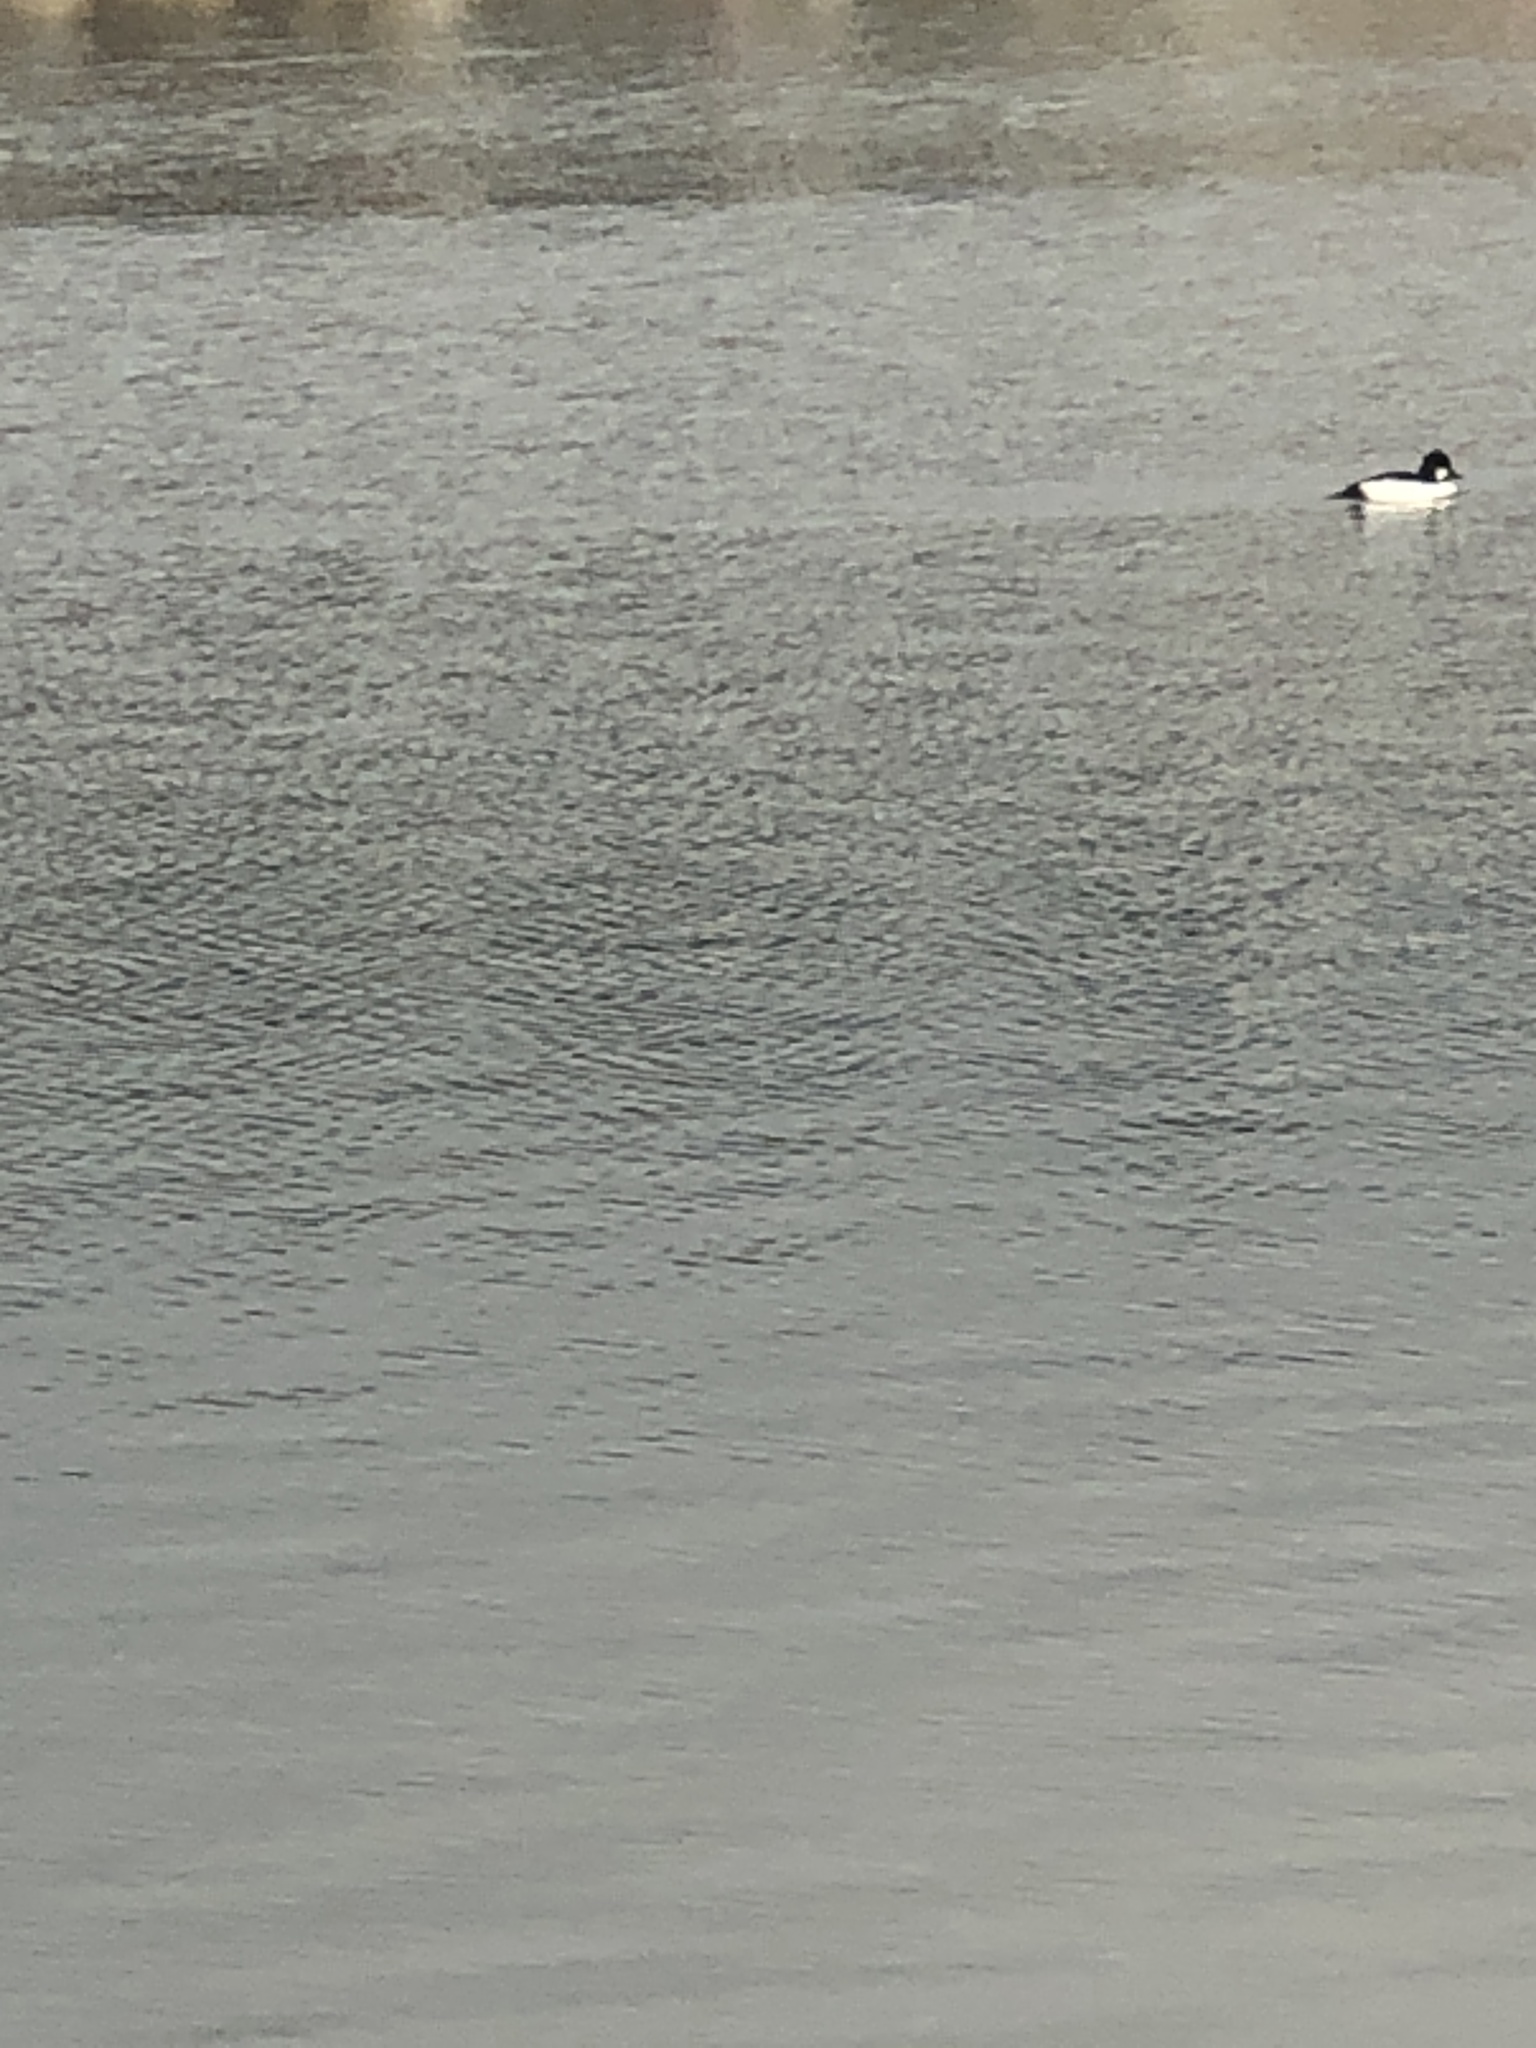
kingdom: Animalia
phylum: Chordata
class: Aves
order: Anseriformes
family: Anatidae
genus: Bucephala
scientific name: Bucephala clangula
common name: Common goldeneye
